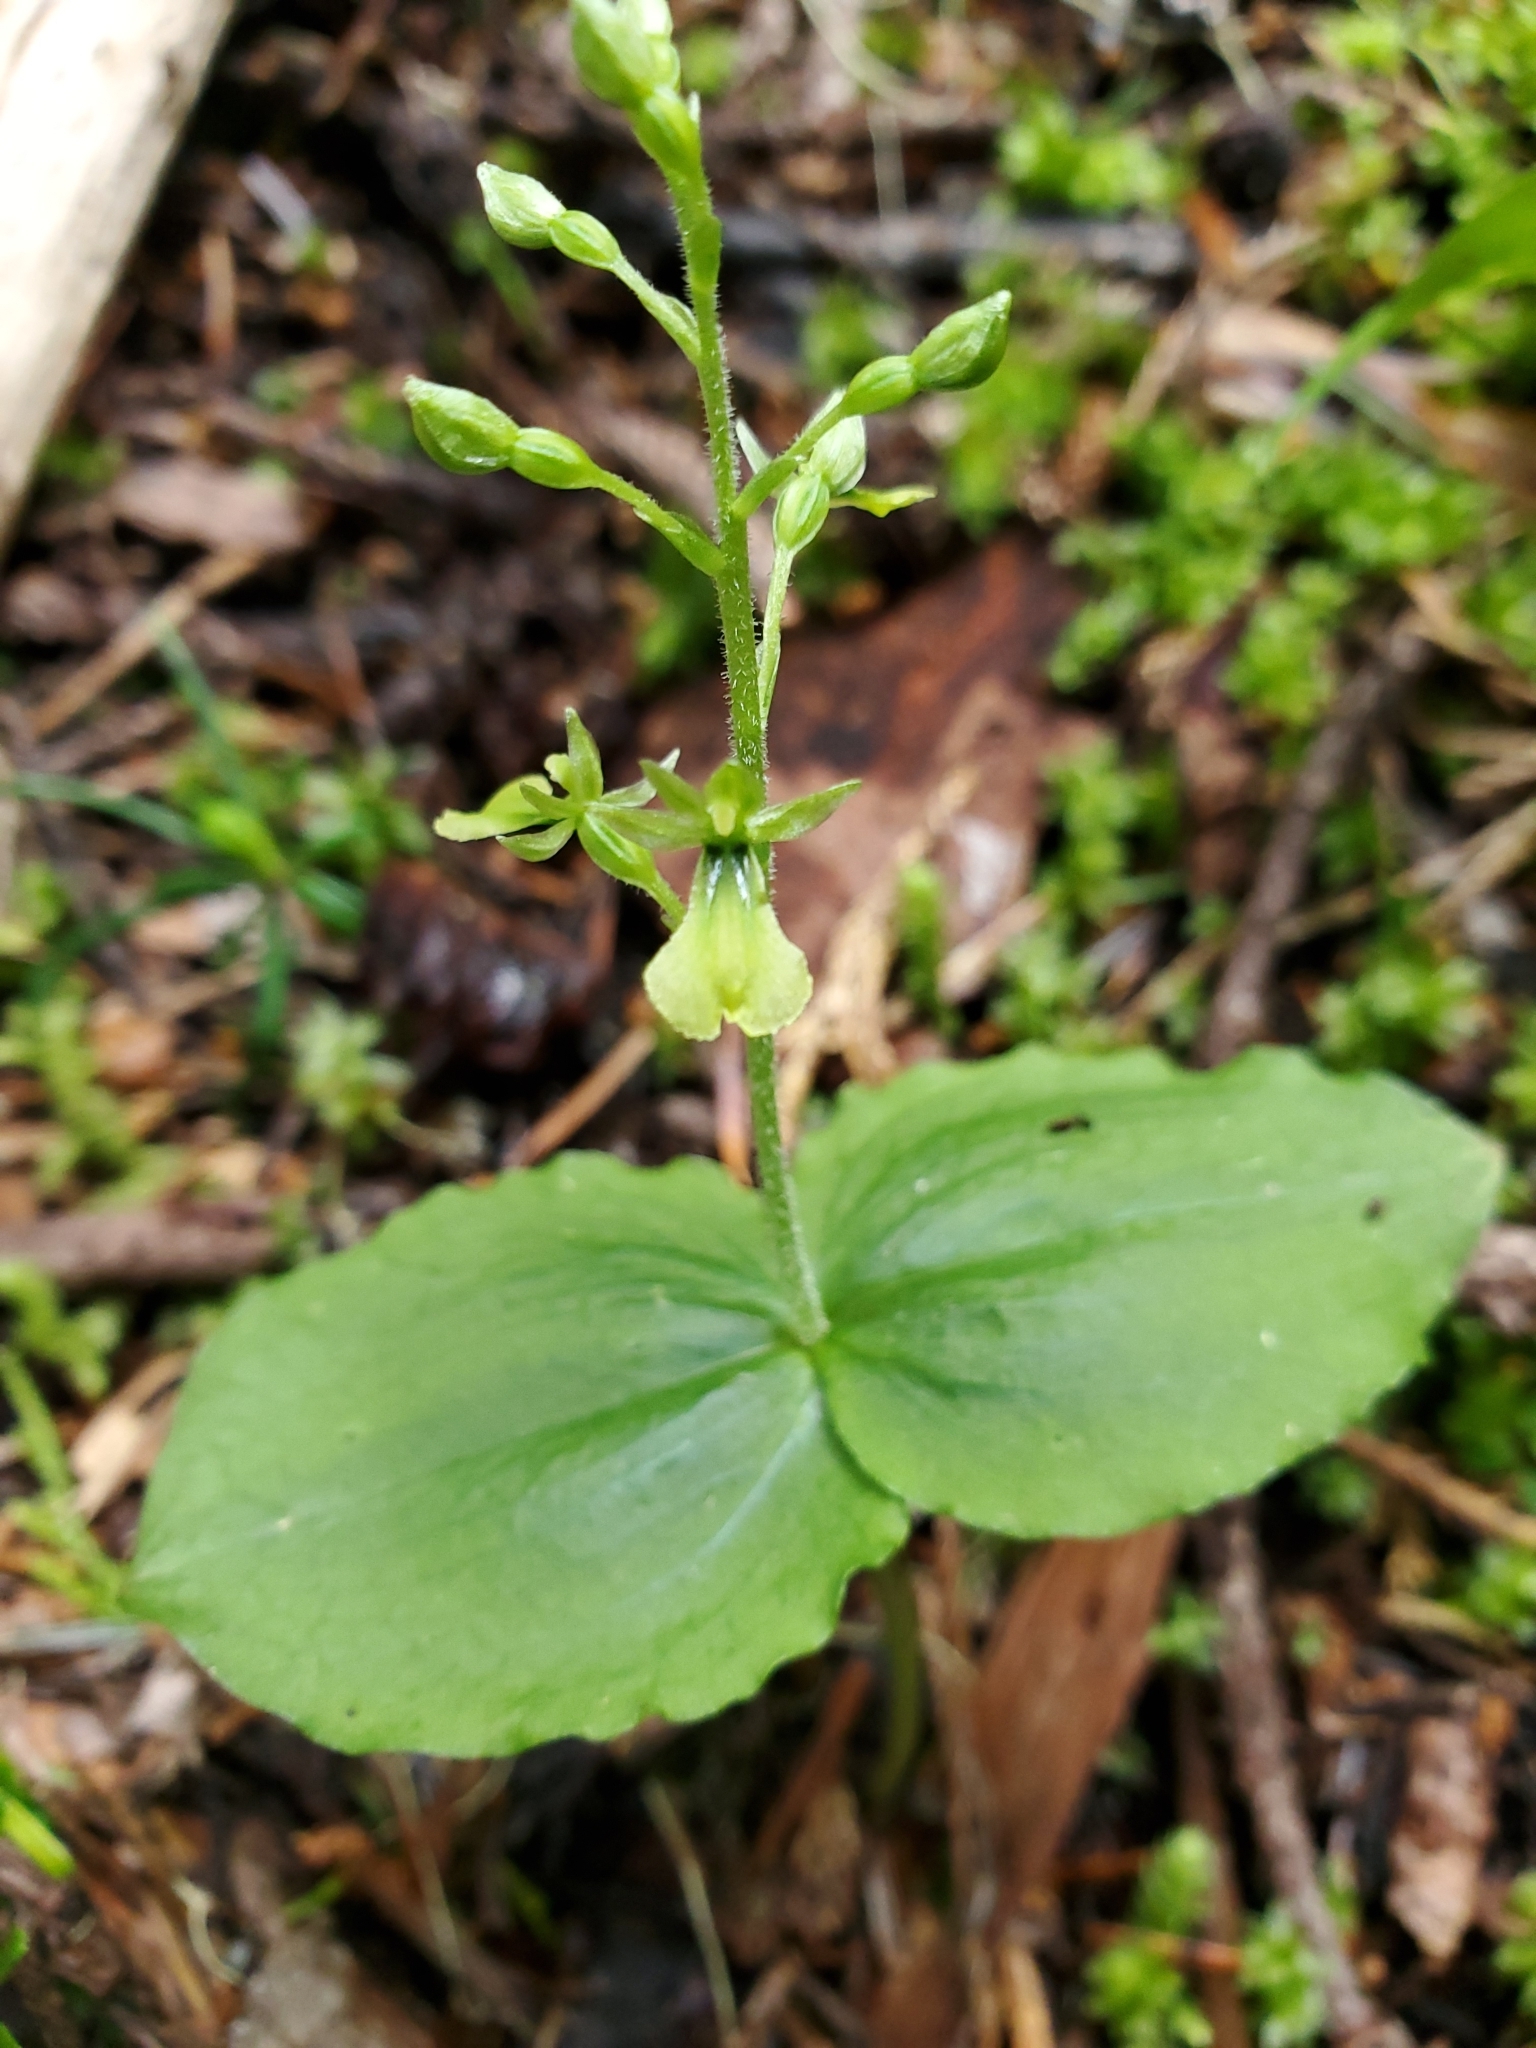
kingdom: Plantae
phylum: Tracheophyta
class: Liliopsida
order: Asparagales
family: Orchidaceae
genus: Neottia
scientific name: Neottia banksiana
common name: Northwestern twayblade
